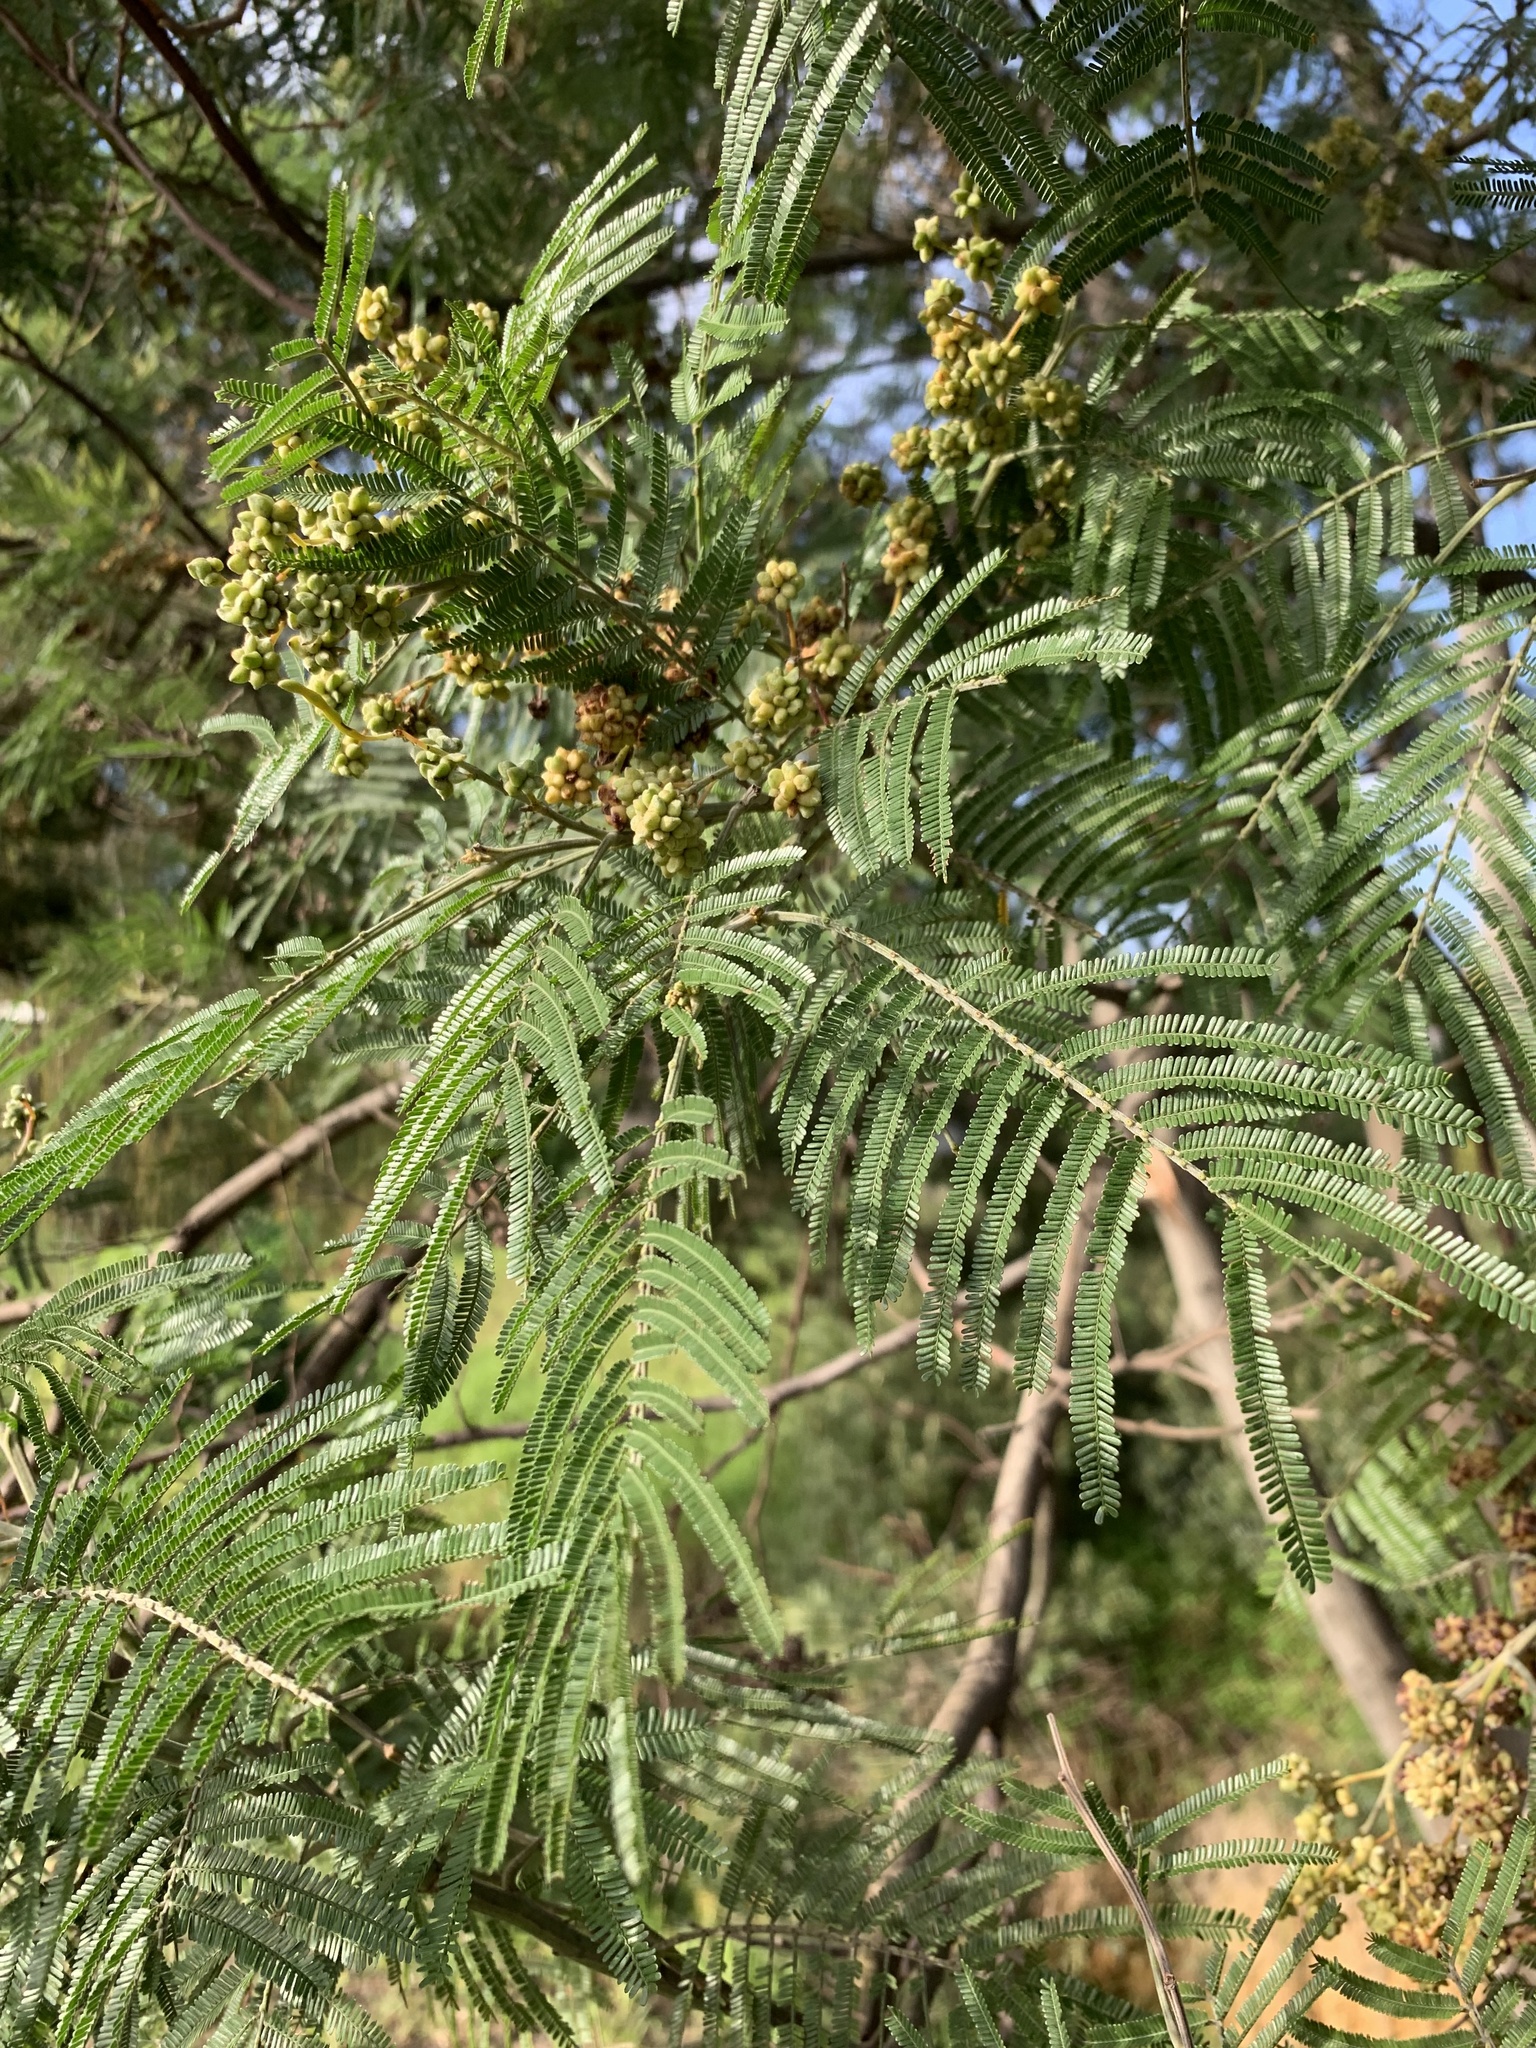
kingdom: Plantae
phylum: Tracheophyta
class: Magnoliopsida
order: Fabales
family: Fabaceae
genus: Acacia
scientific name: Acacia mearnsii
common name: Black wattle
